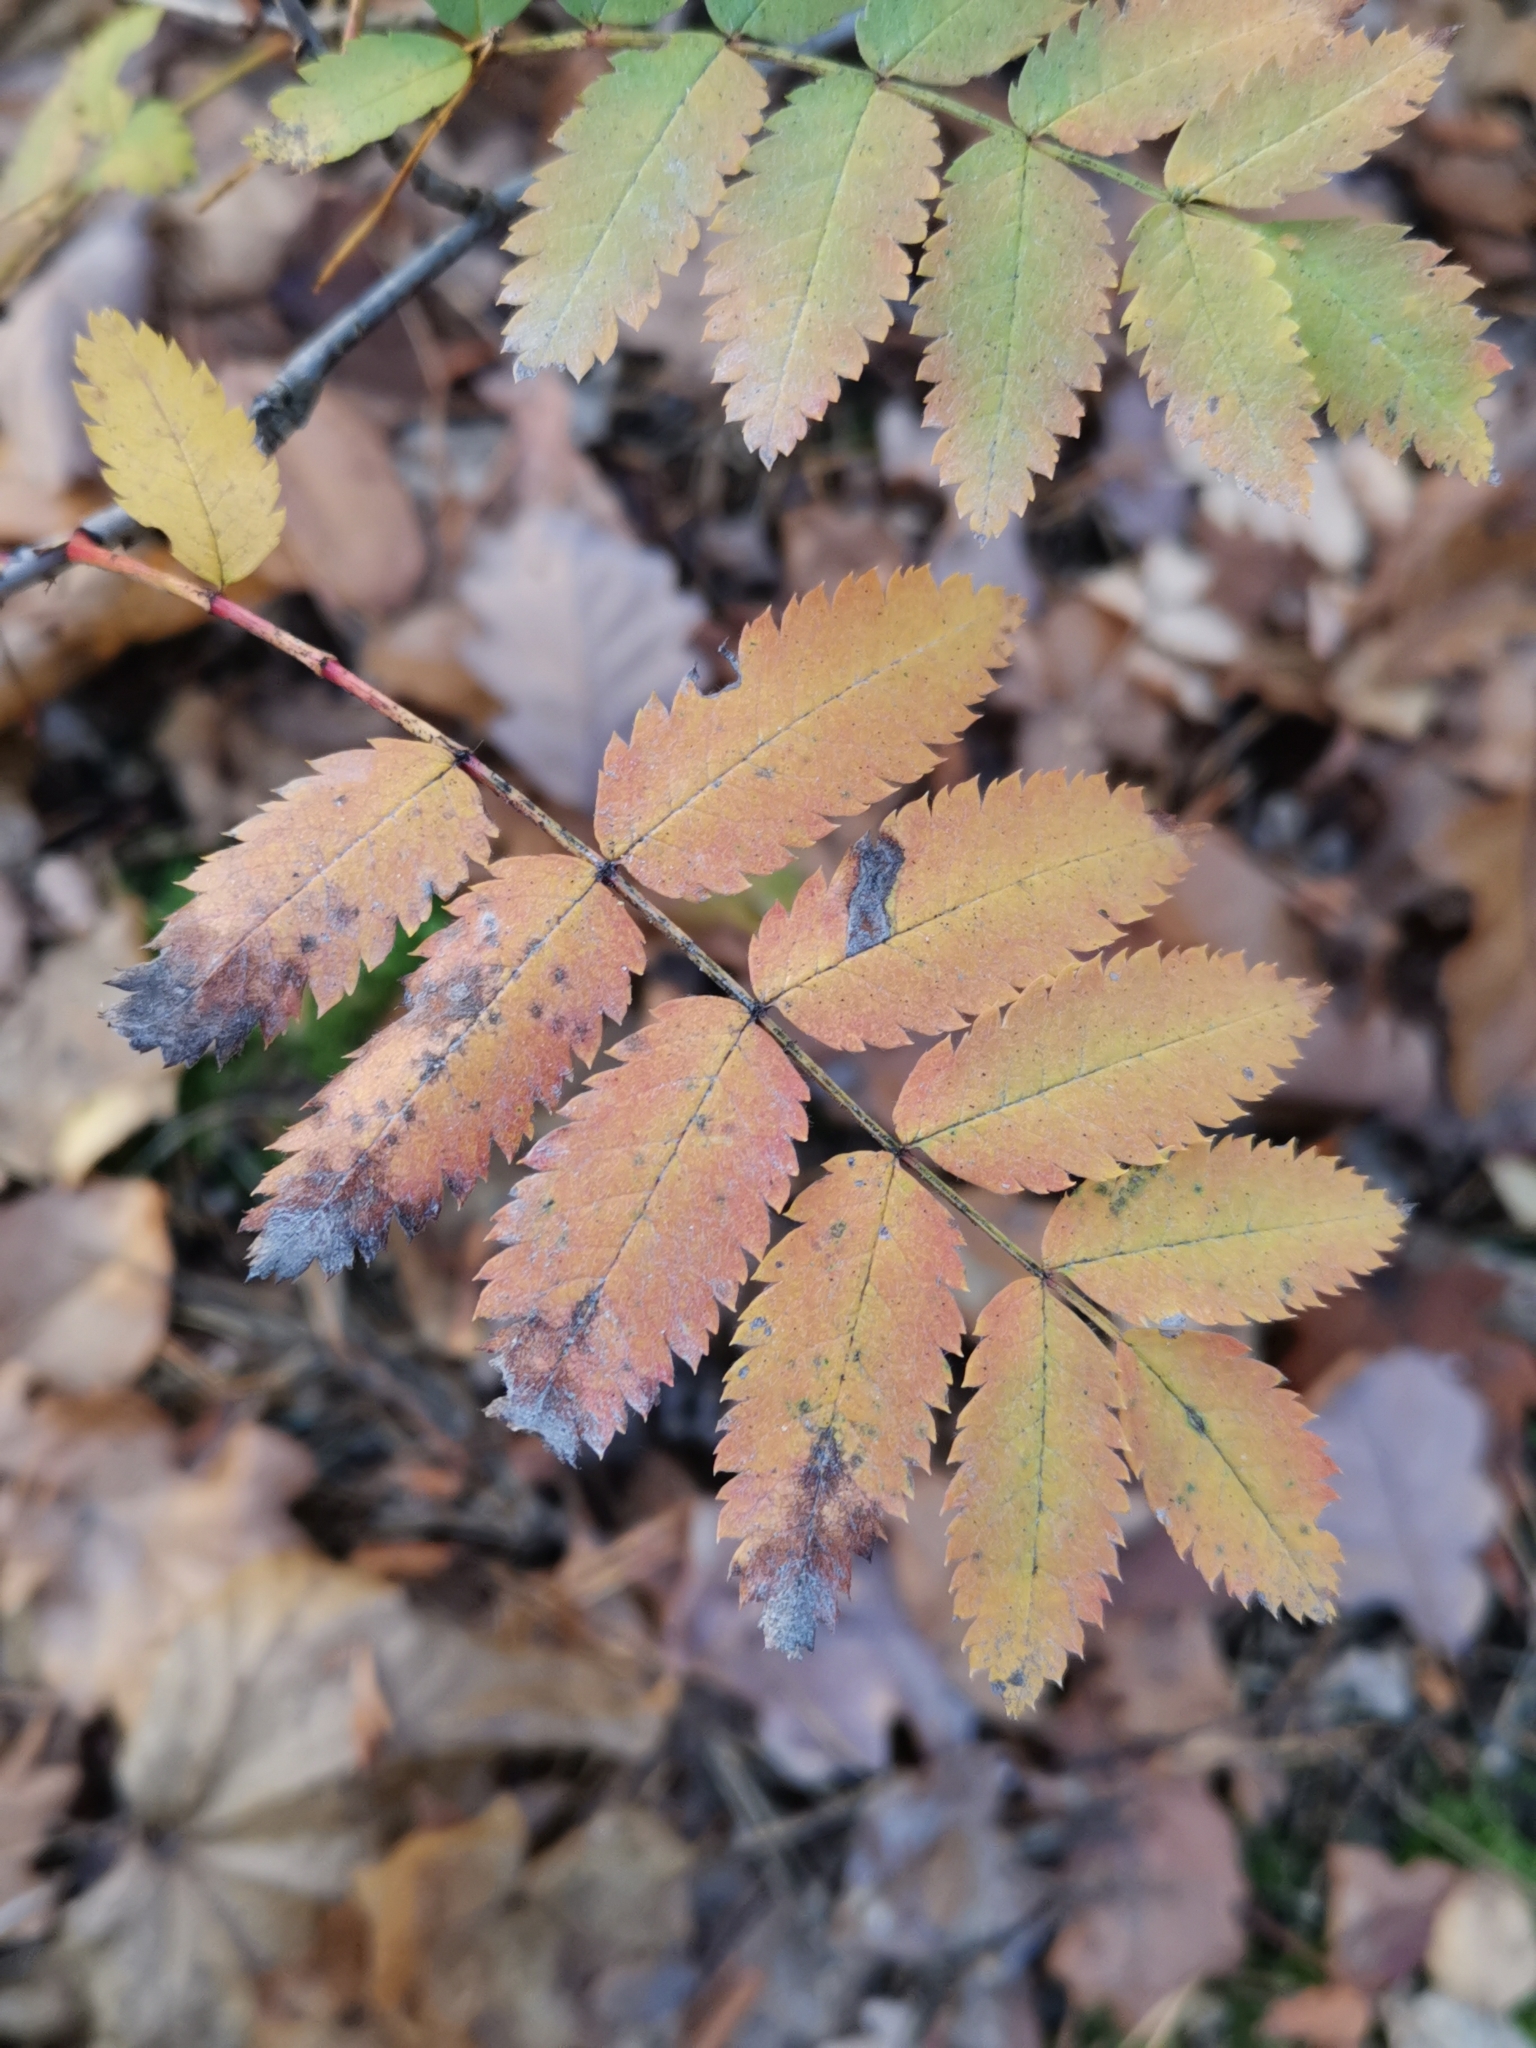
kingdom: Plantae
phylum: Tracheophyta
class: Magnoliopsida
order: Rosales
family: Rosaceae
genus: Sorbus
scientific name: Sorbus aucuparia
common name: Rowan
